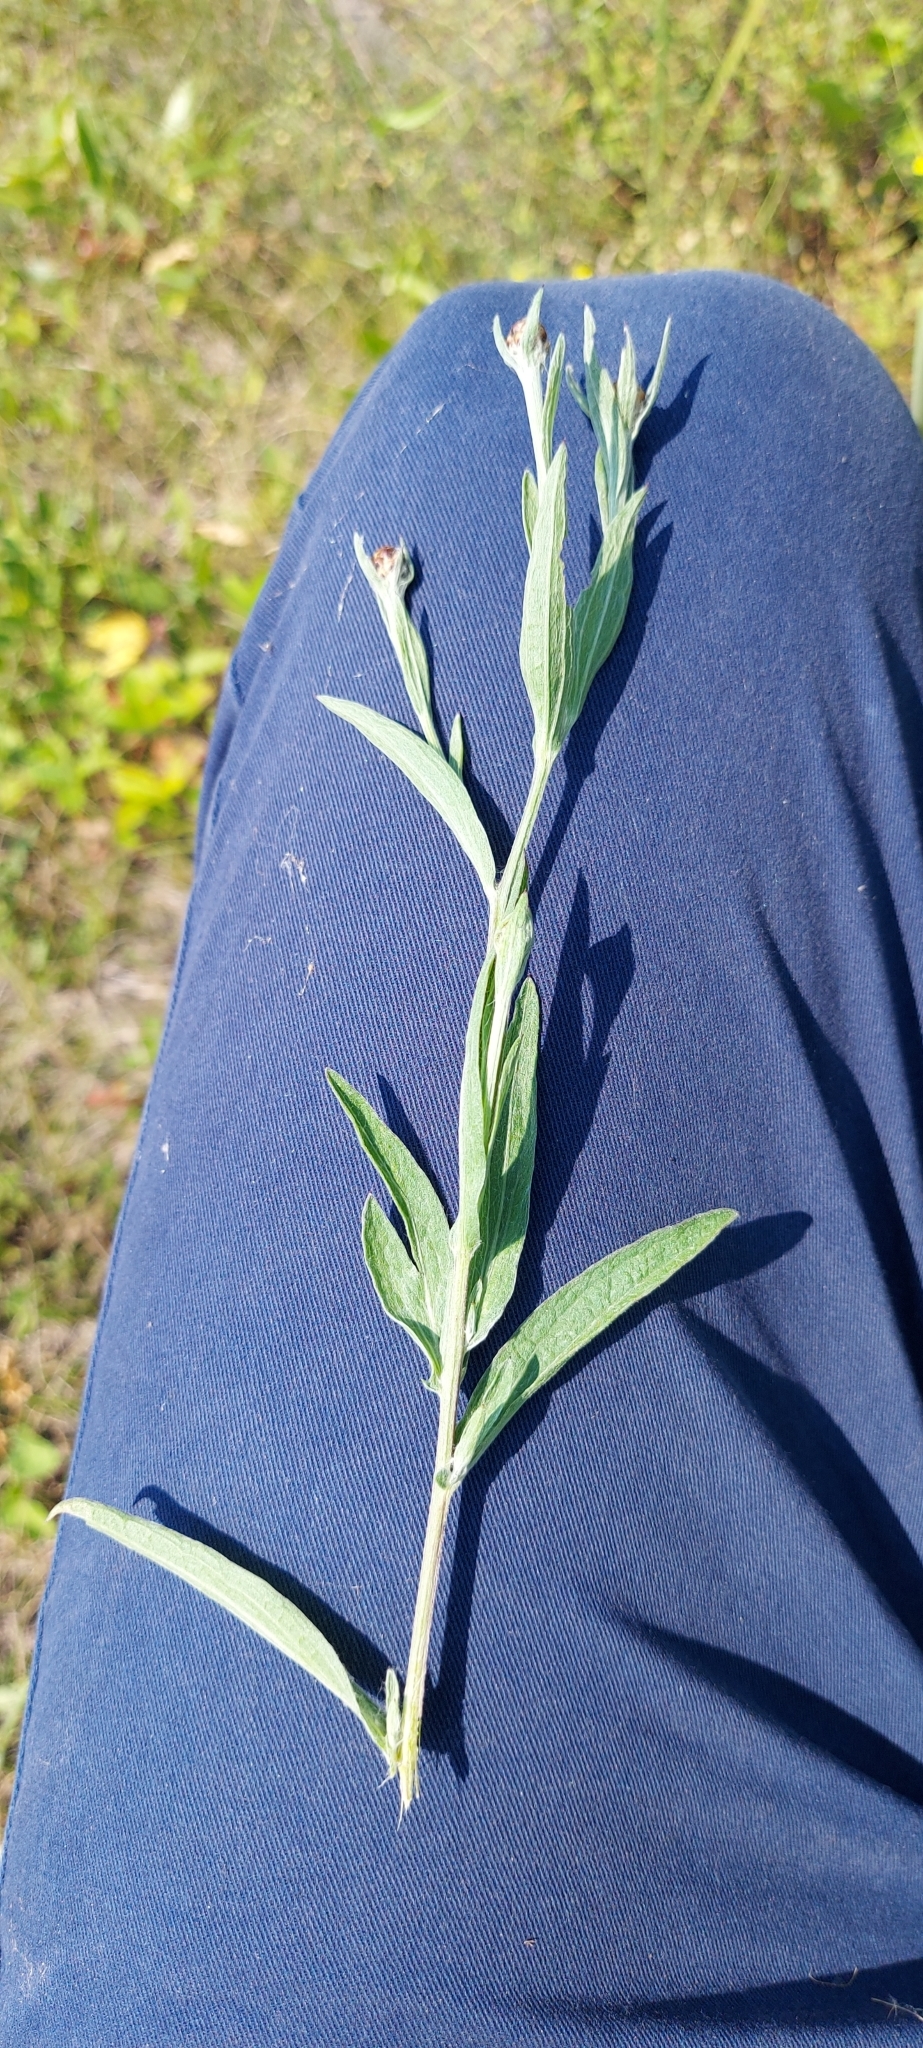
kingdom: Plantae
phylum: Tracheophyta
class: Magnoliopsida
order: Asterales
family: Asteraceae
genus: Centaurea
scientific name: Centaurea jacea
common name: Brown knapweed
